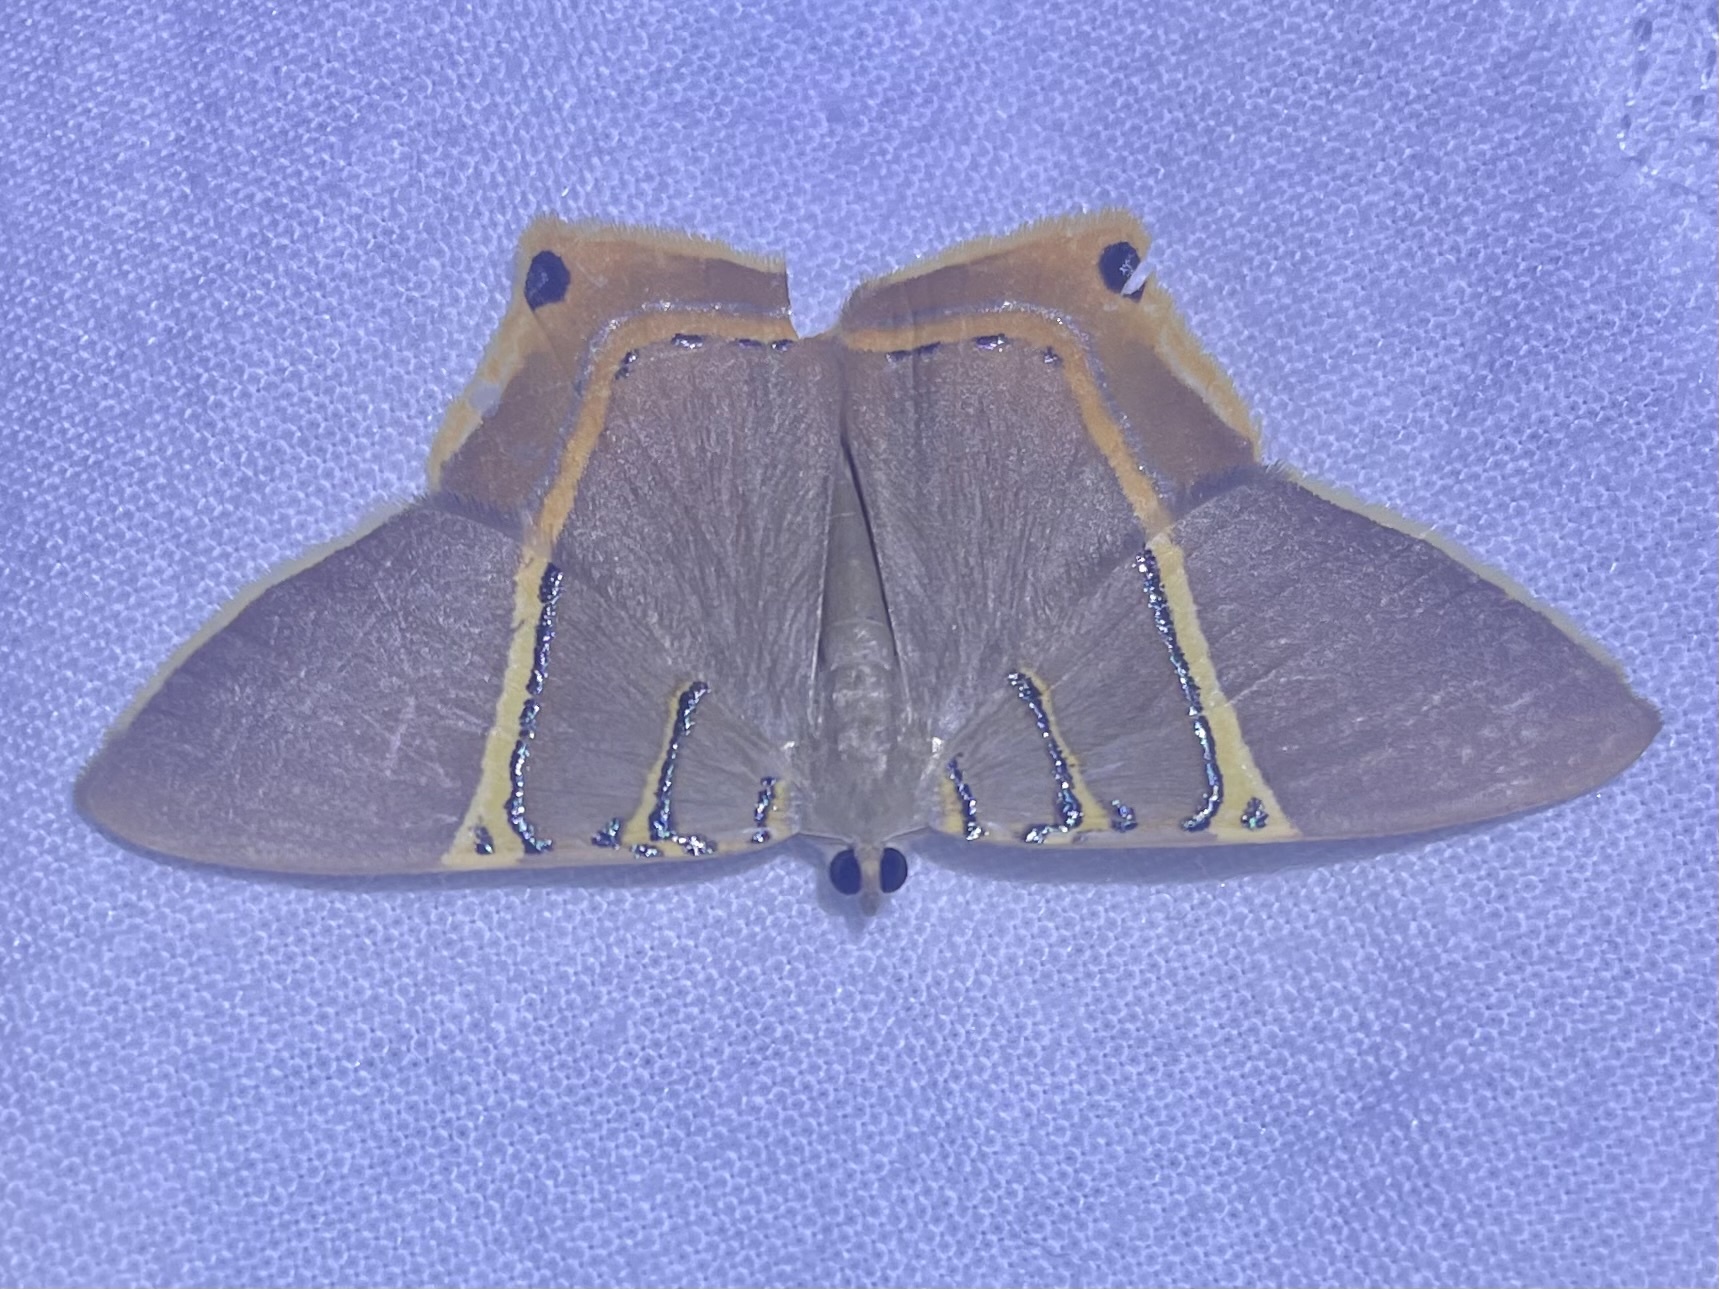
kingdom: Animalia
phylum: Arthropoda
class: Insecta
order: Lepidoptera
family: Geometridae
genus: Phrygionis
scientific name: Phrygionis polita
